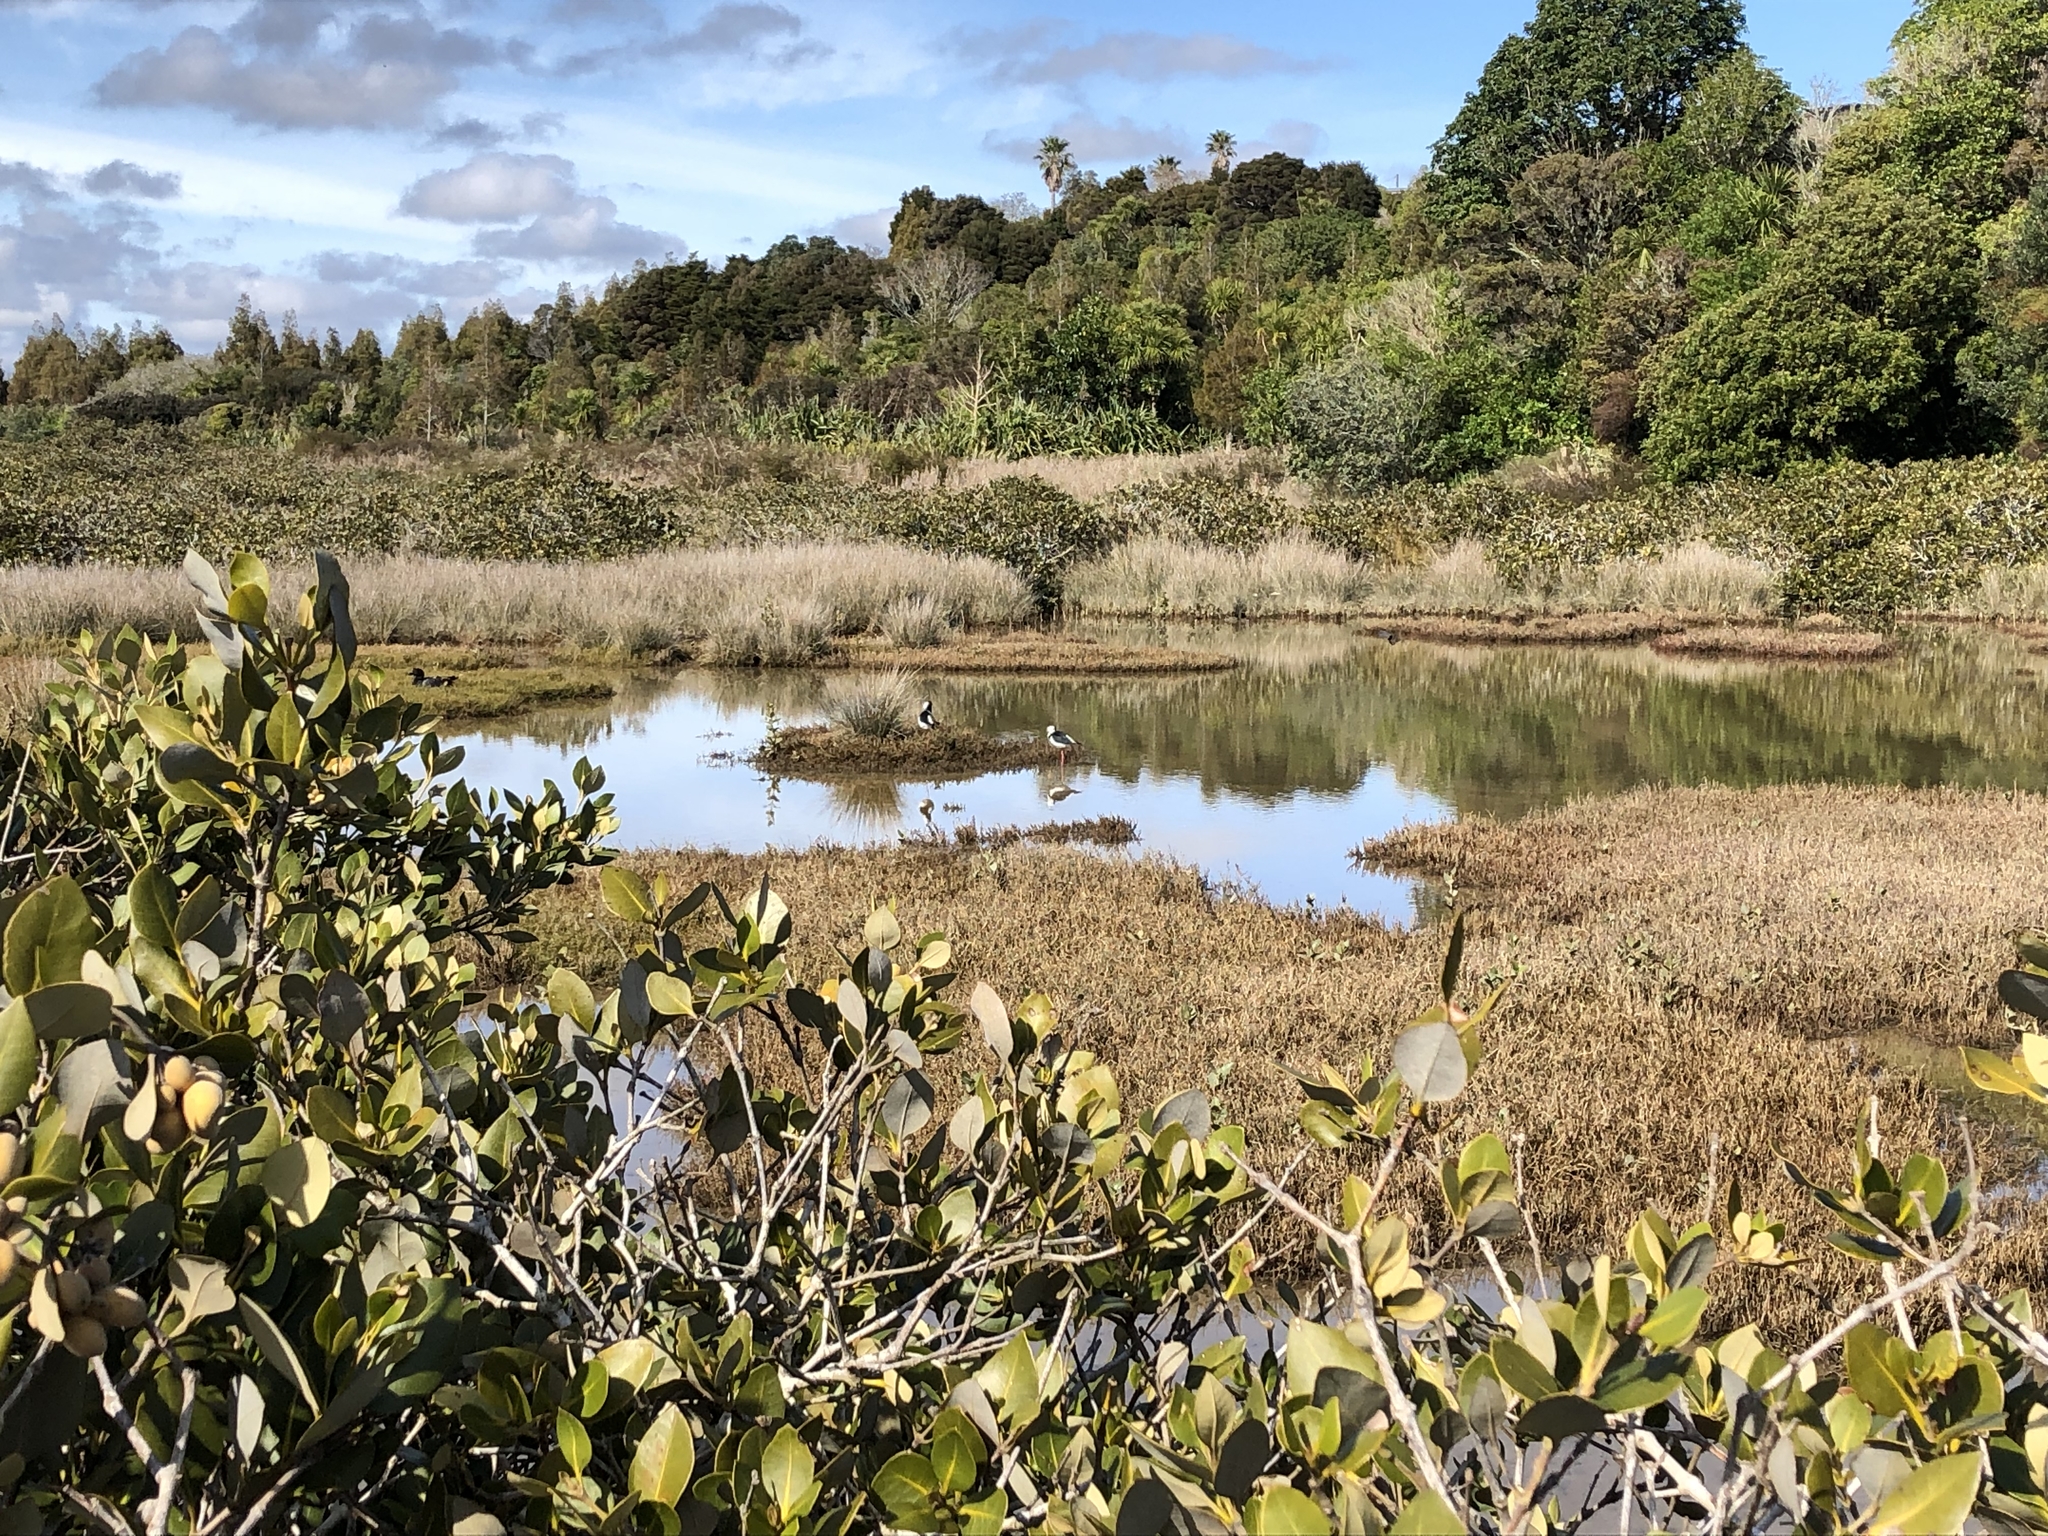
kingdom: Animalia
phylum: Chordata
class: Aves
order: Charadriiformes
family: Recurvirostridae
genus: Himantopus
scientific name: Himantopus leucocephalus
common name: White-headed stilt
